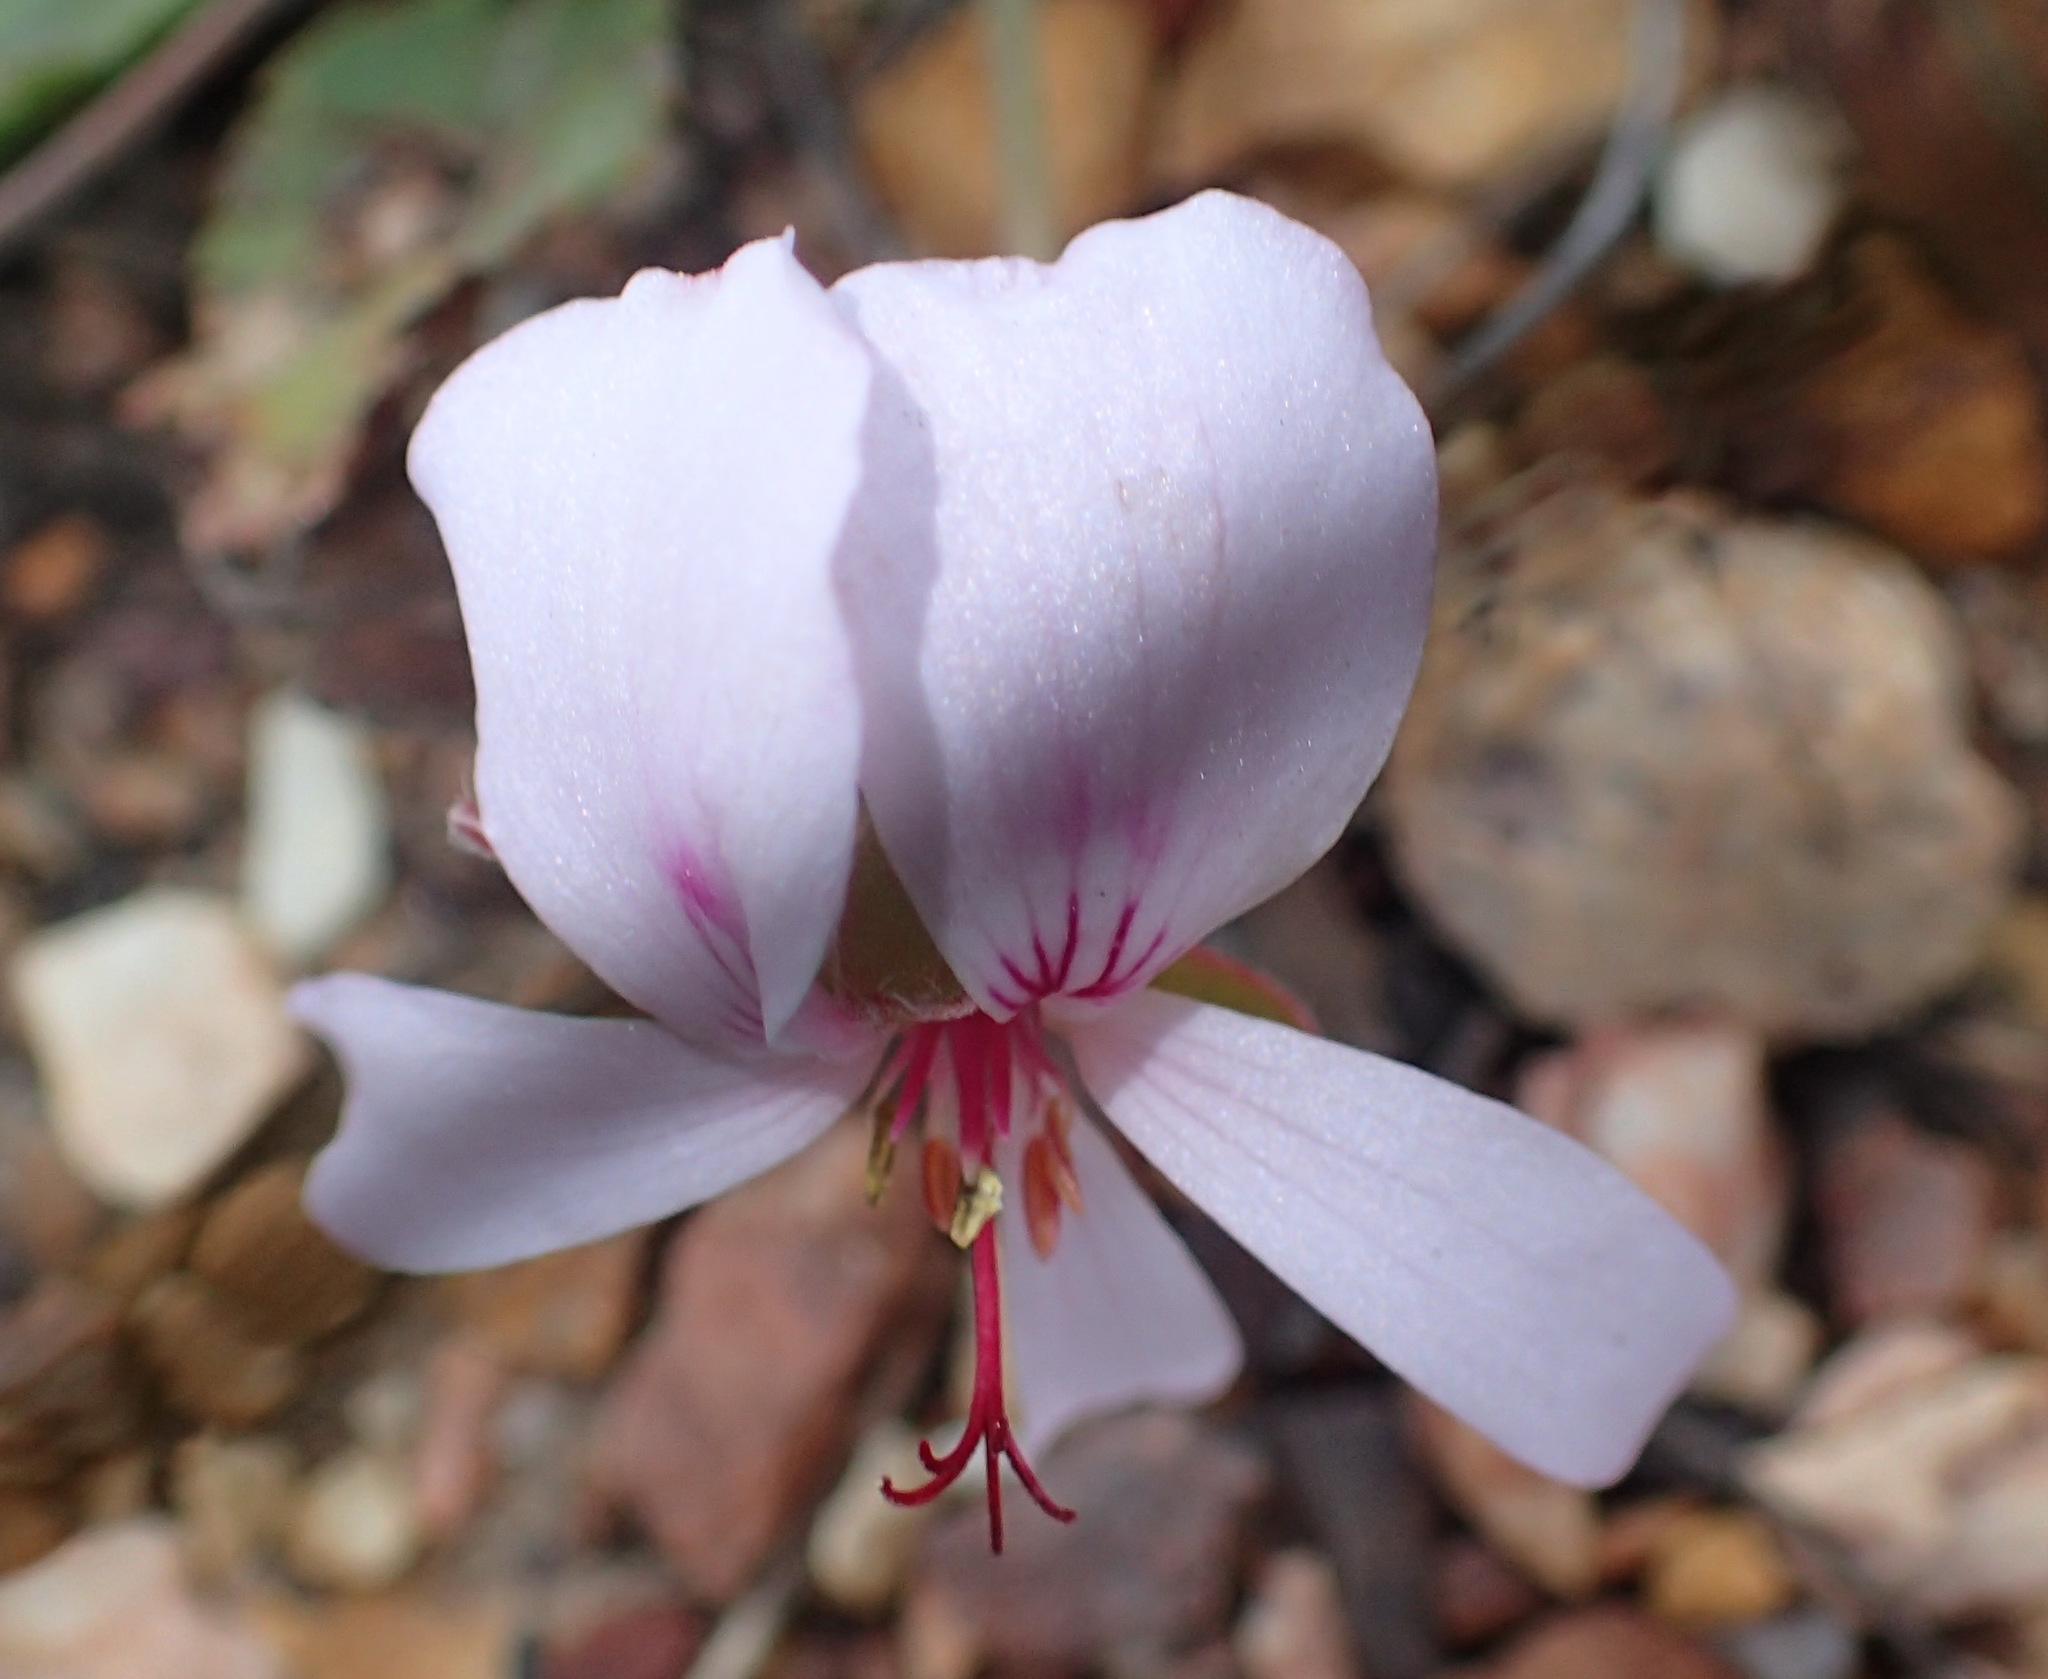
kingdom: Plantae
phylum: Tracheophyta
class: Magnoliopsida
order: Geraniales
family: Geraniaceae
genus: Pelargonium
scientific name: Pelargonium ovale
